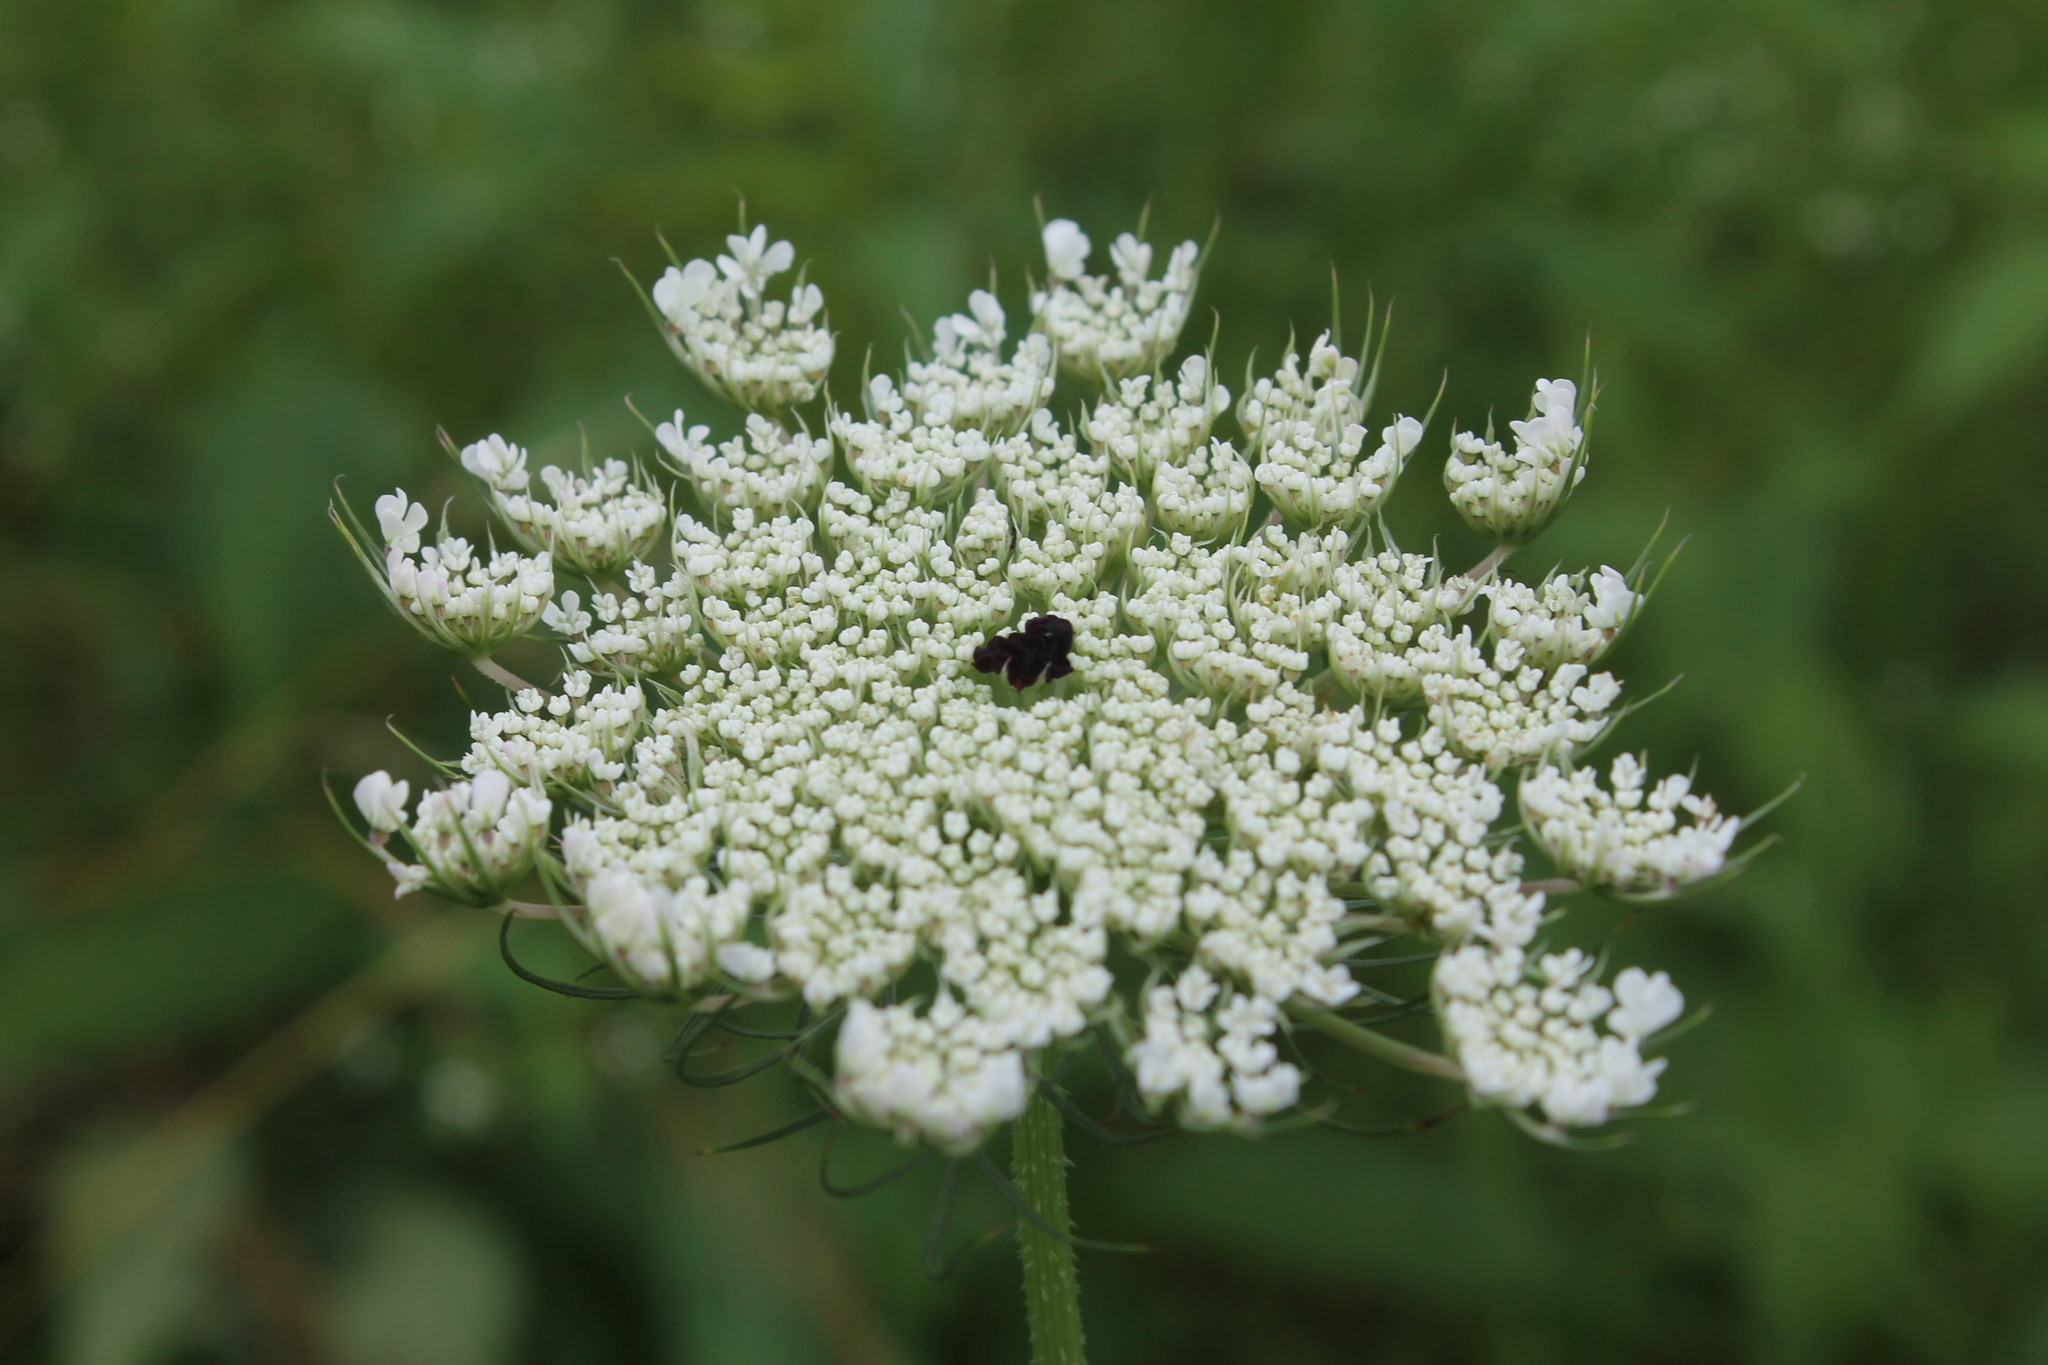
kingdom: Plantae
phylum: Tracheophyta
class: Magnoliopsida
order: Apiales
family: Apiaceae
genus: Daucus
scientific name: Daucus carota
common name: Wild carrot
